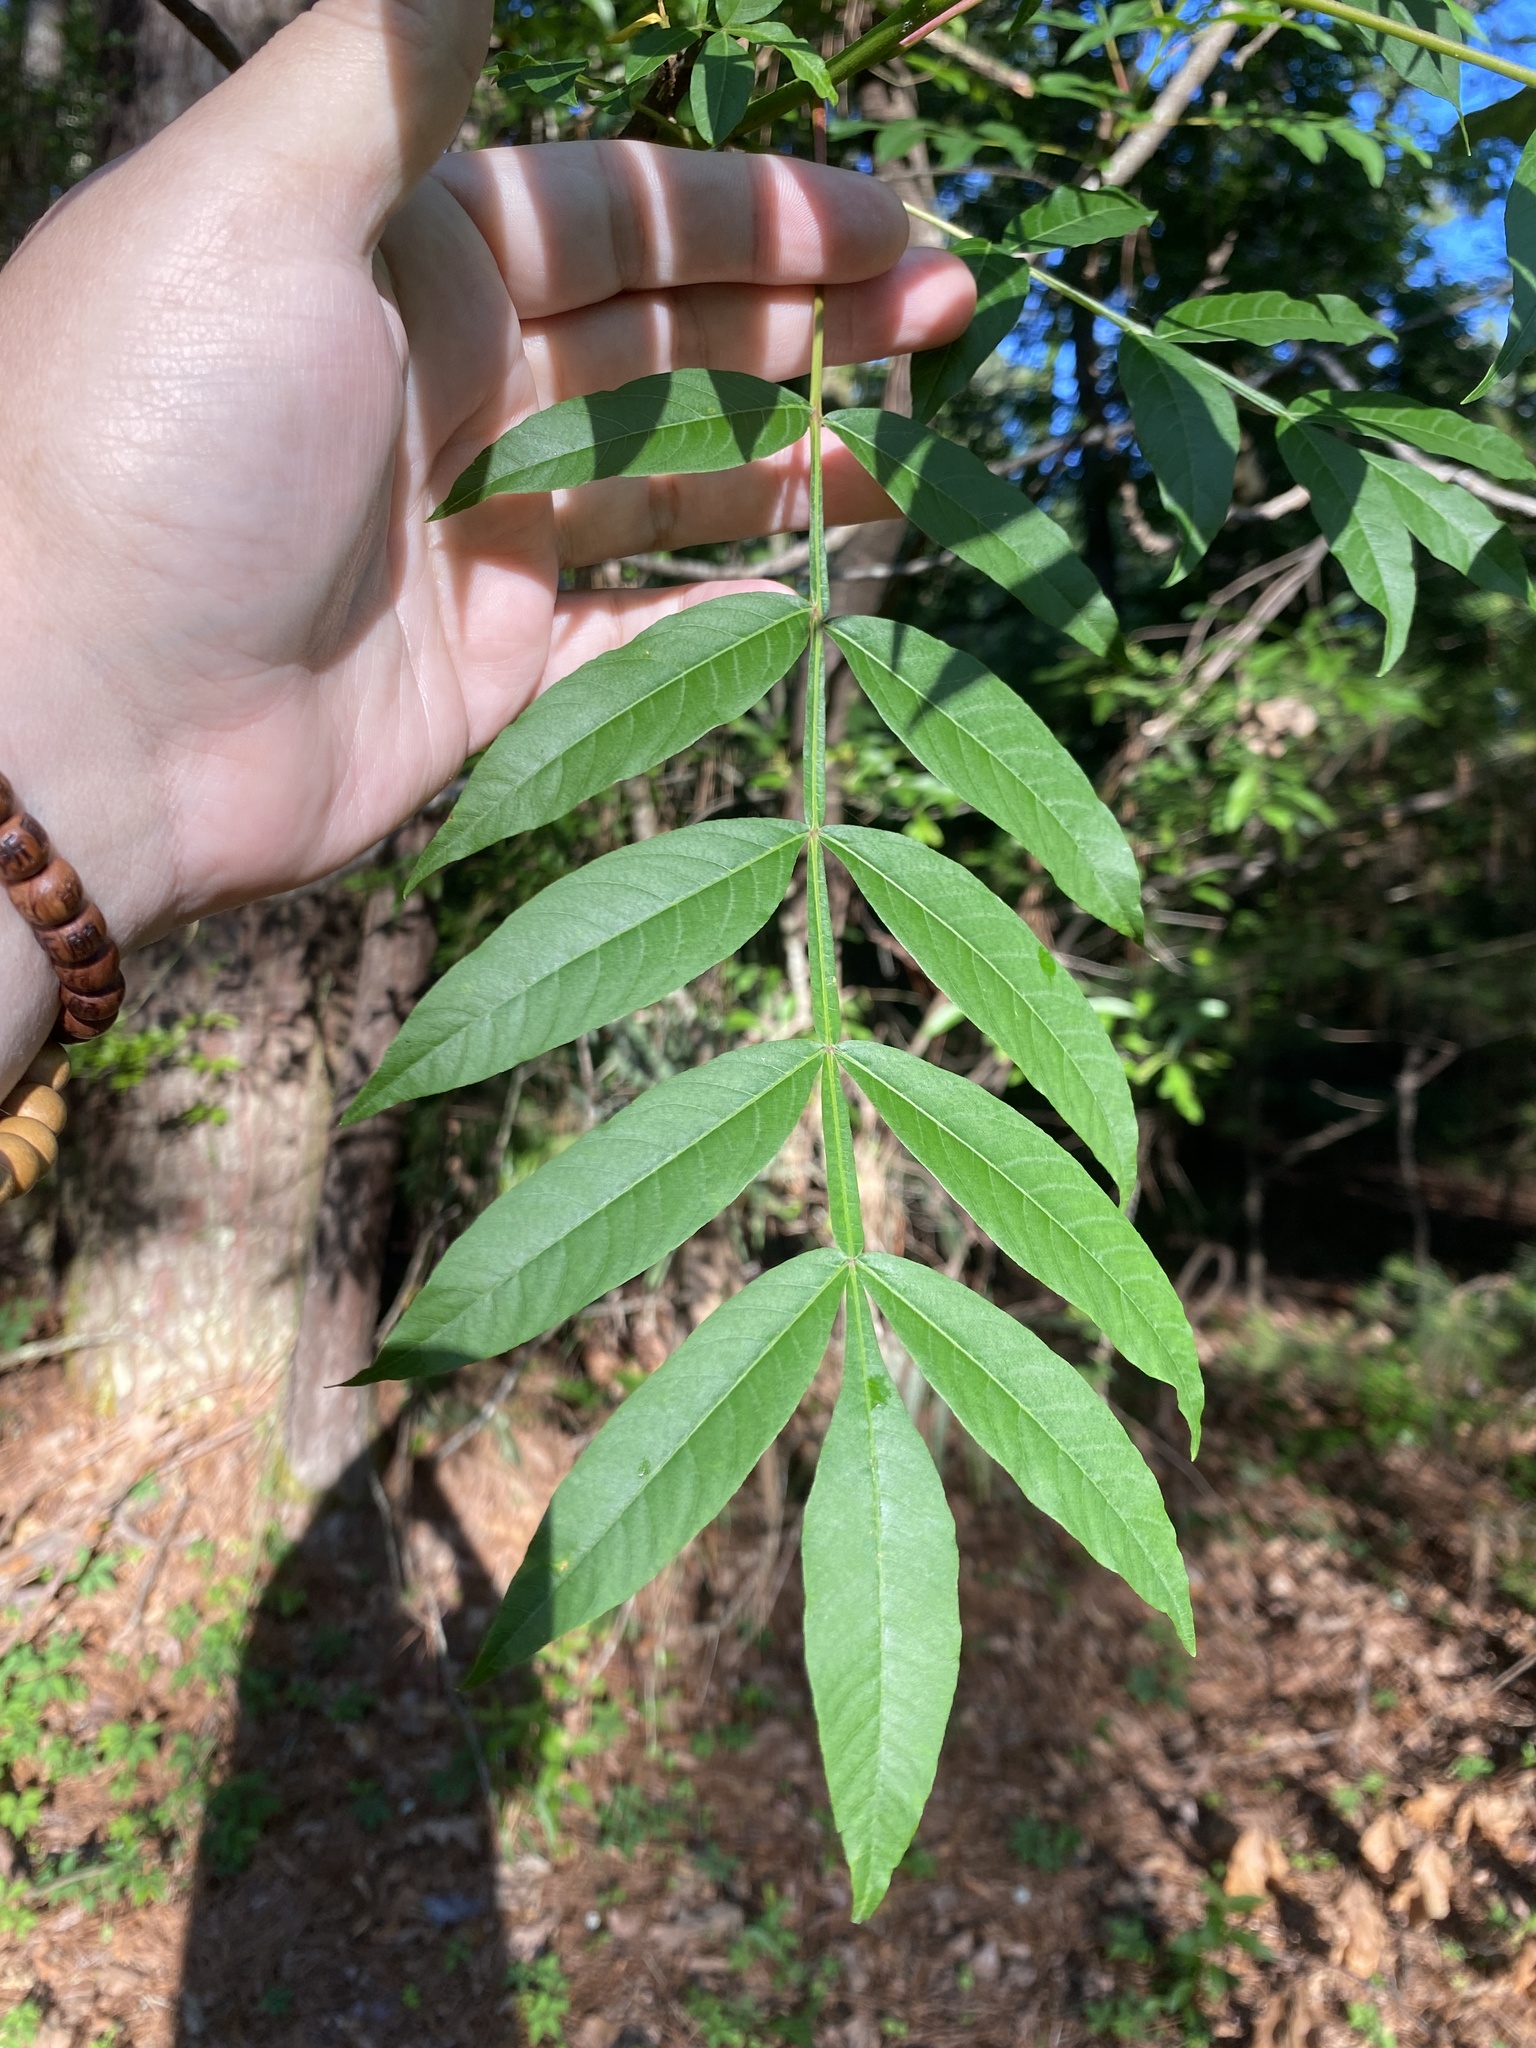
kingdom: Plantae
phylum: Tracheophyta
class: Magnoliopsida
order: Sapindales
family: Anacardiaceae
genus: Rhus
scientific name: Rhus copallina
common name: Shining sumac
